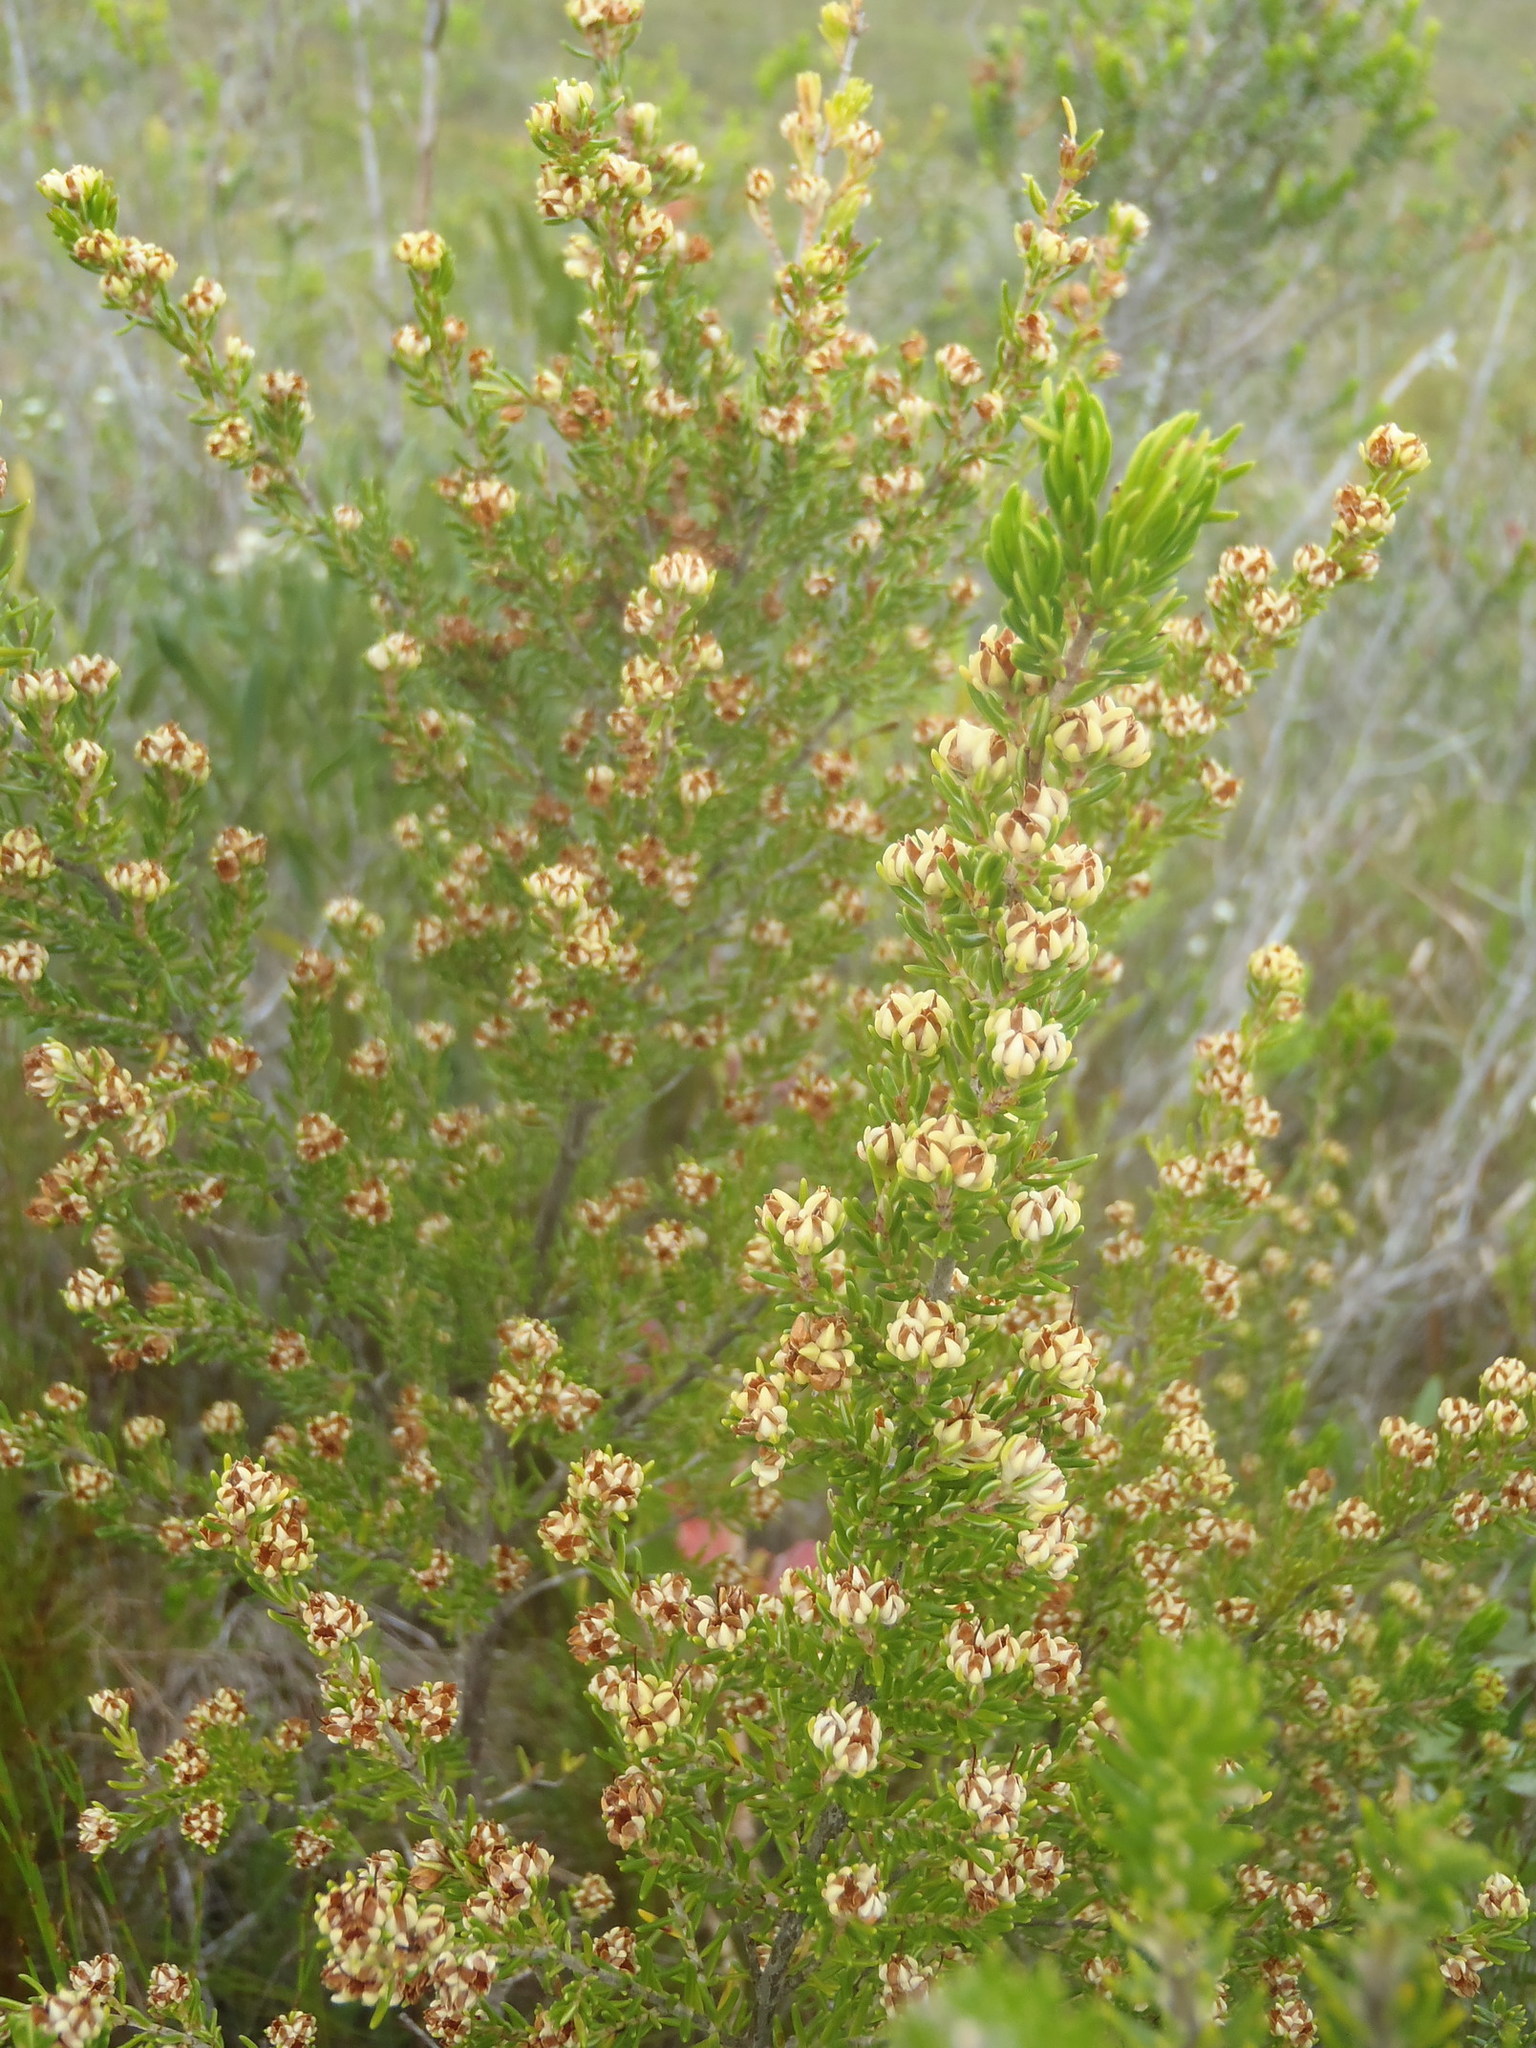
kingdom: Plantae
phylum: Tracheophyta
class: Magnoliopsida
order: Ericales
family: Ericaceae
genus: Erica
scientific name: Erica glumiflora
